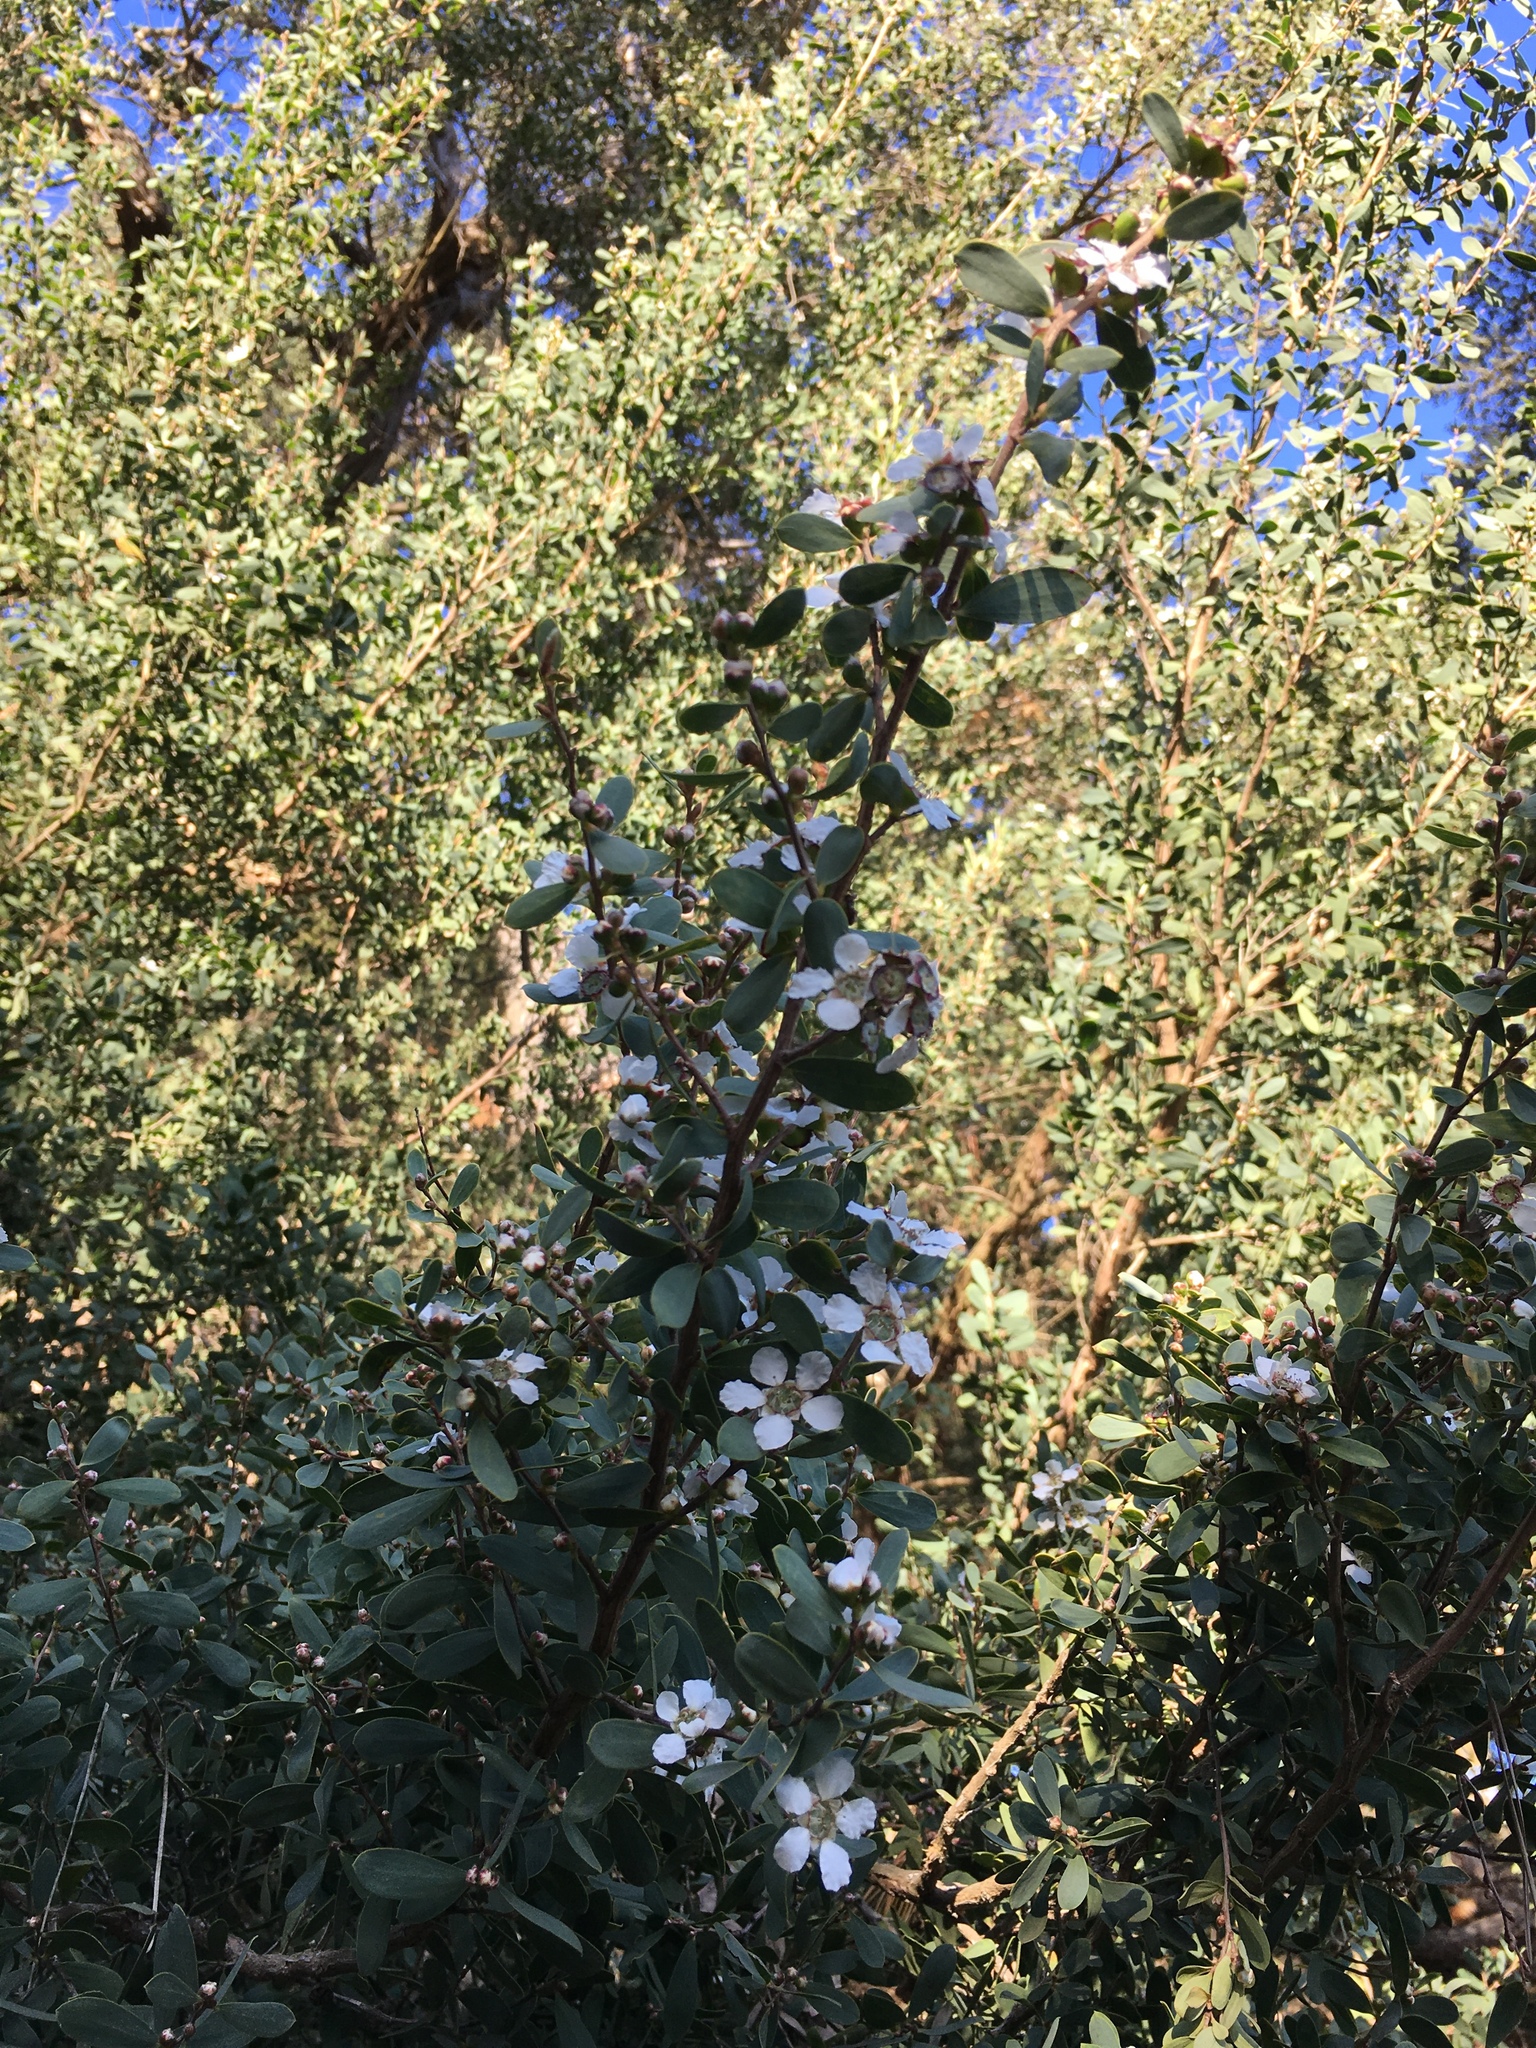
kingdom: Plantae
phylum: Tracheophyta
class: Magnoliopsida
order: Myrtales
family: Myrtaceae
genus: Leptospermum
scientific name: Leptospermum laevigatum
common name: Australian teatree
